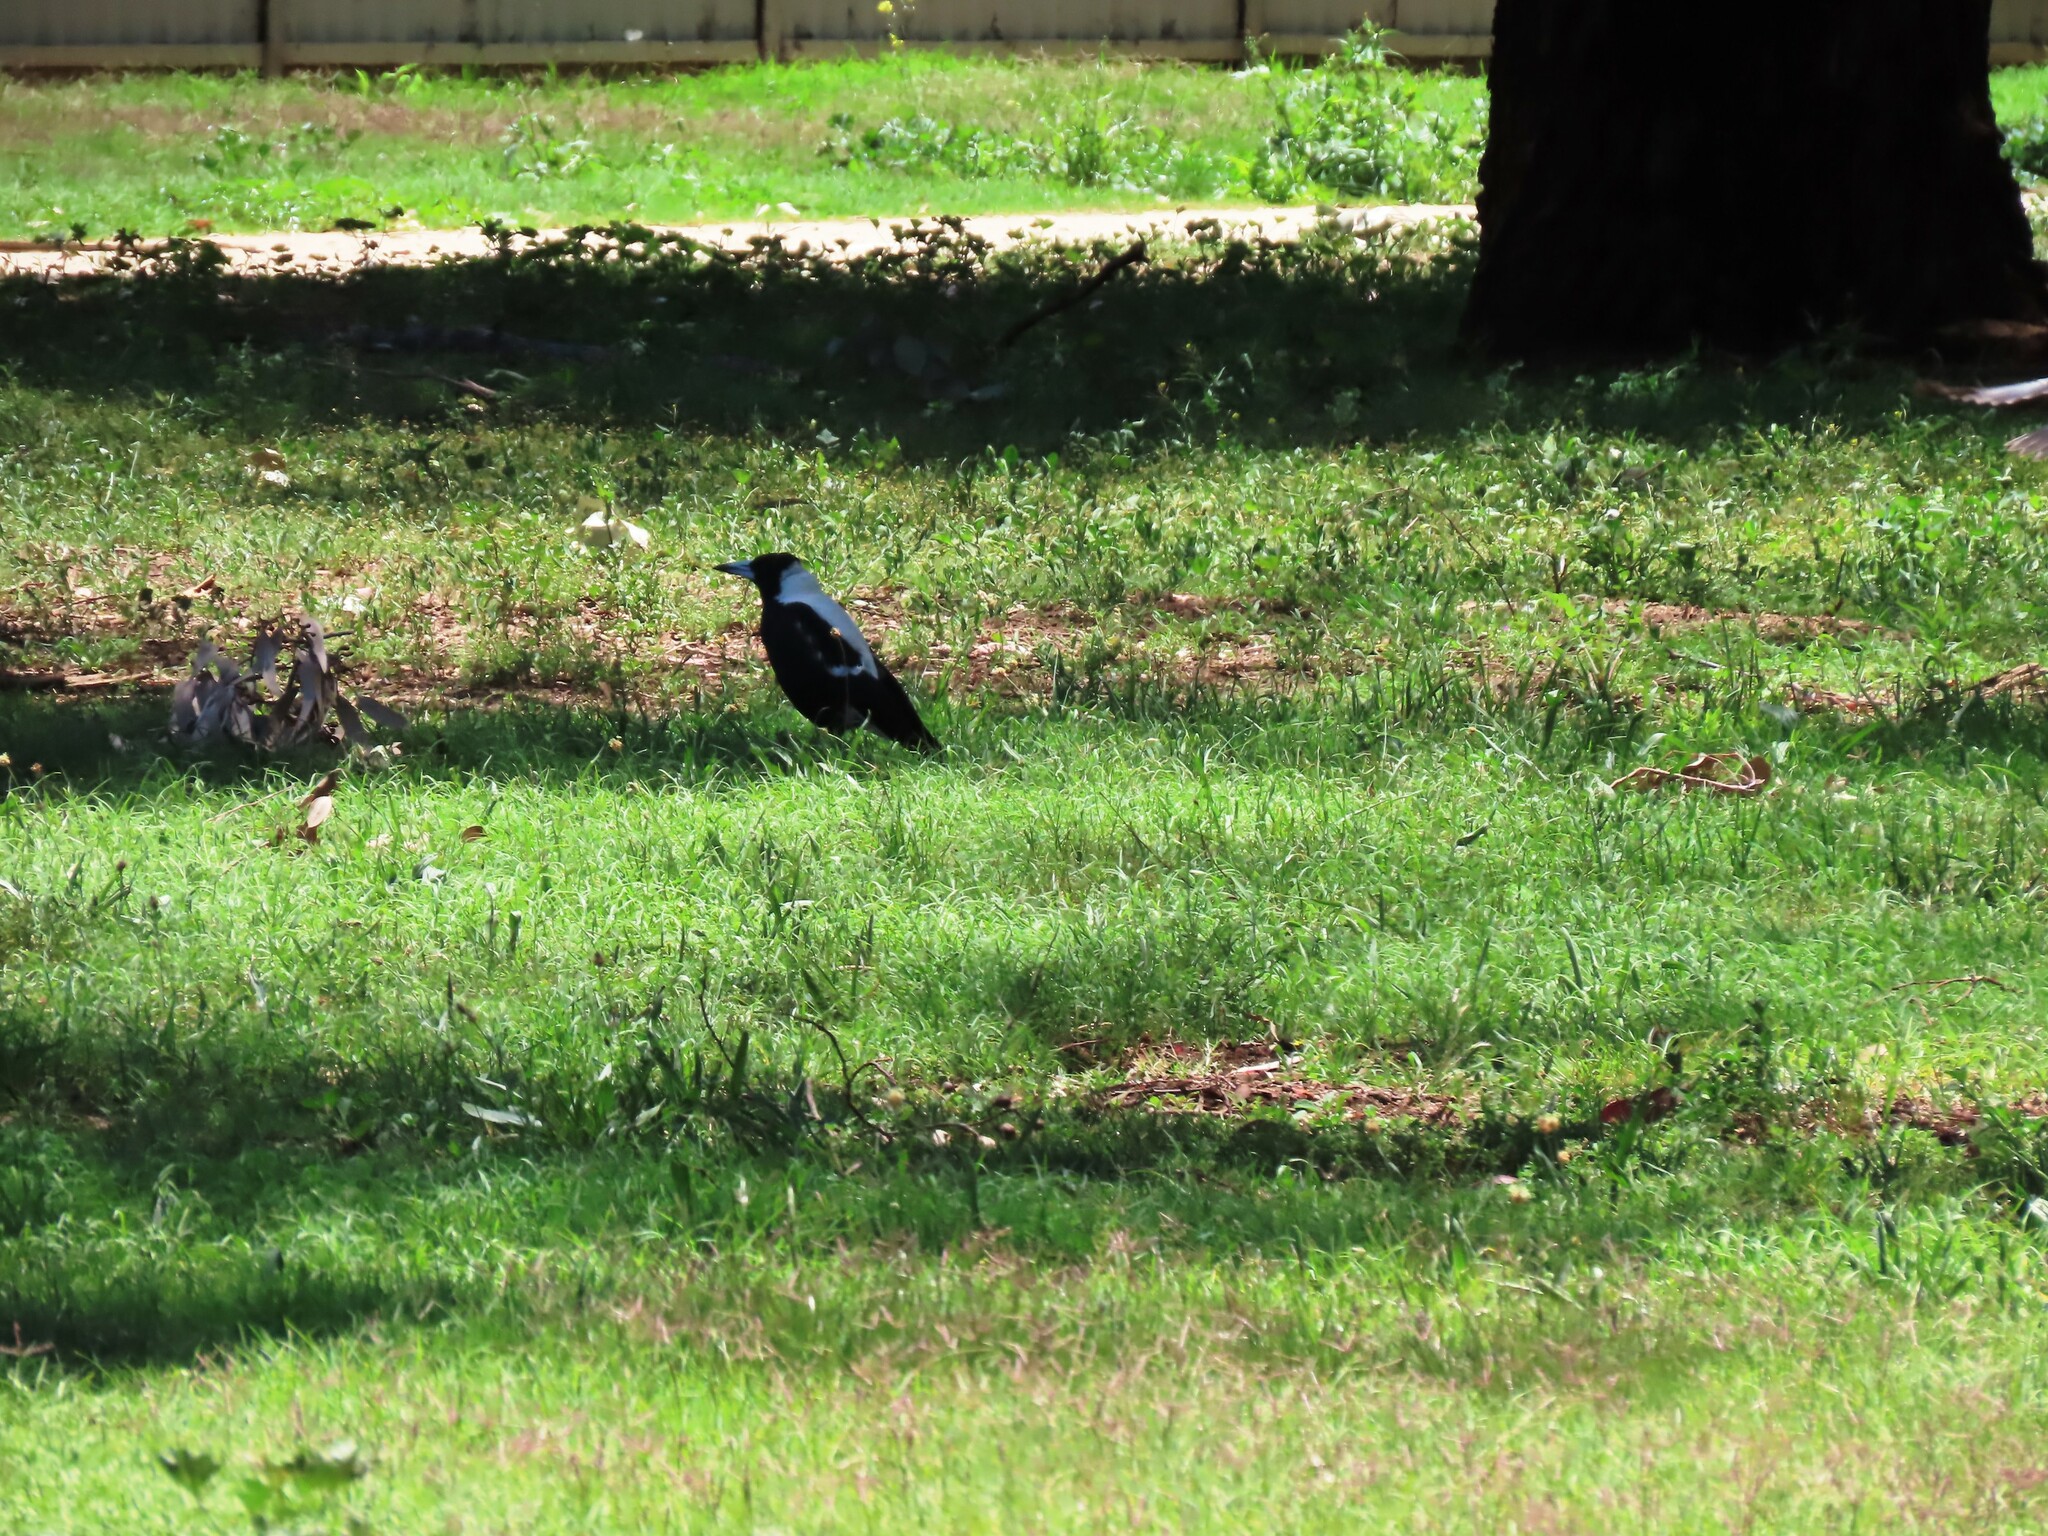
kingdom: Animalia
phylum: Chordata
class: Aves
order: Passeriformes
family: Cracticidae
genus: Gymnorhina
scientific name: Gymnorhina tibicen
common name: Australian magpie
